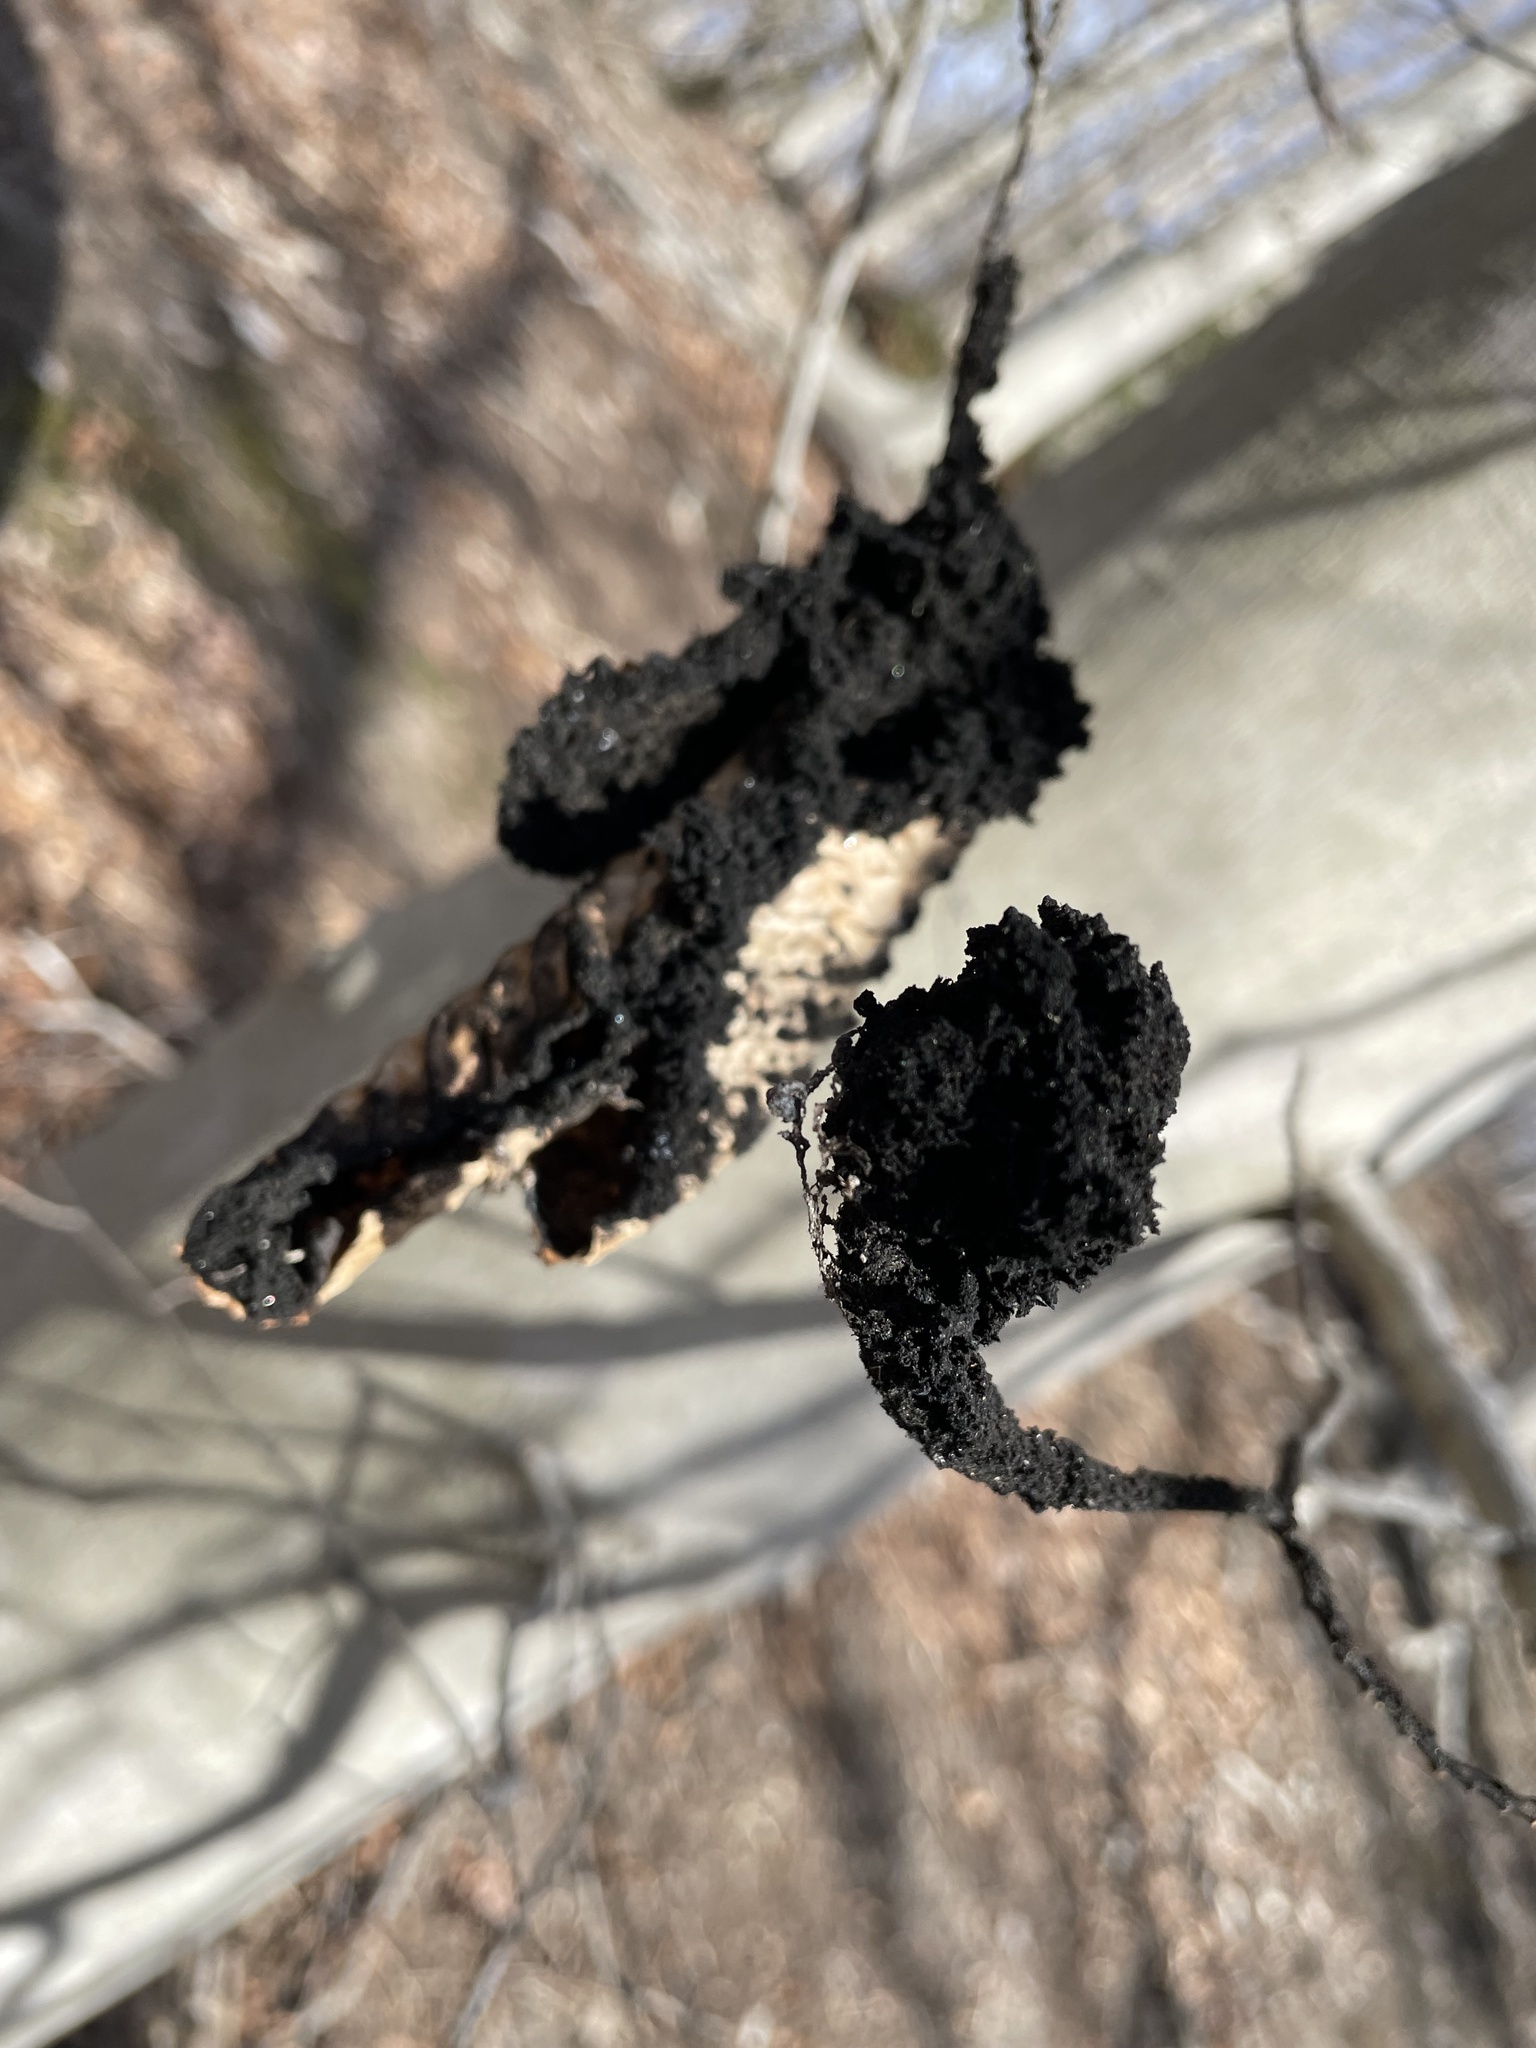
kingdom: Fungi
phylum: Ascomycota
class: Dothideomycetes
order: Capnodiales
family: Capnodiaceae
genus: Scorias
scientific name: Scorias spongiosa
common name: Black sooty mold
